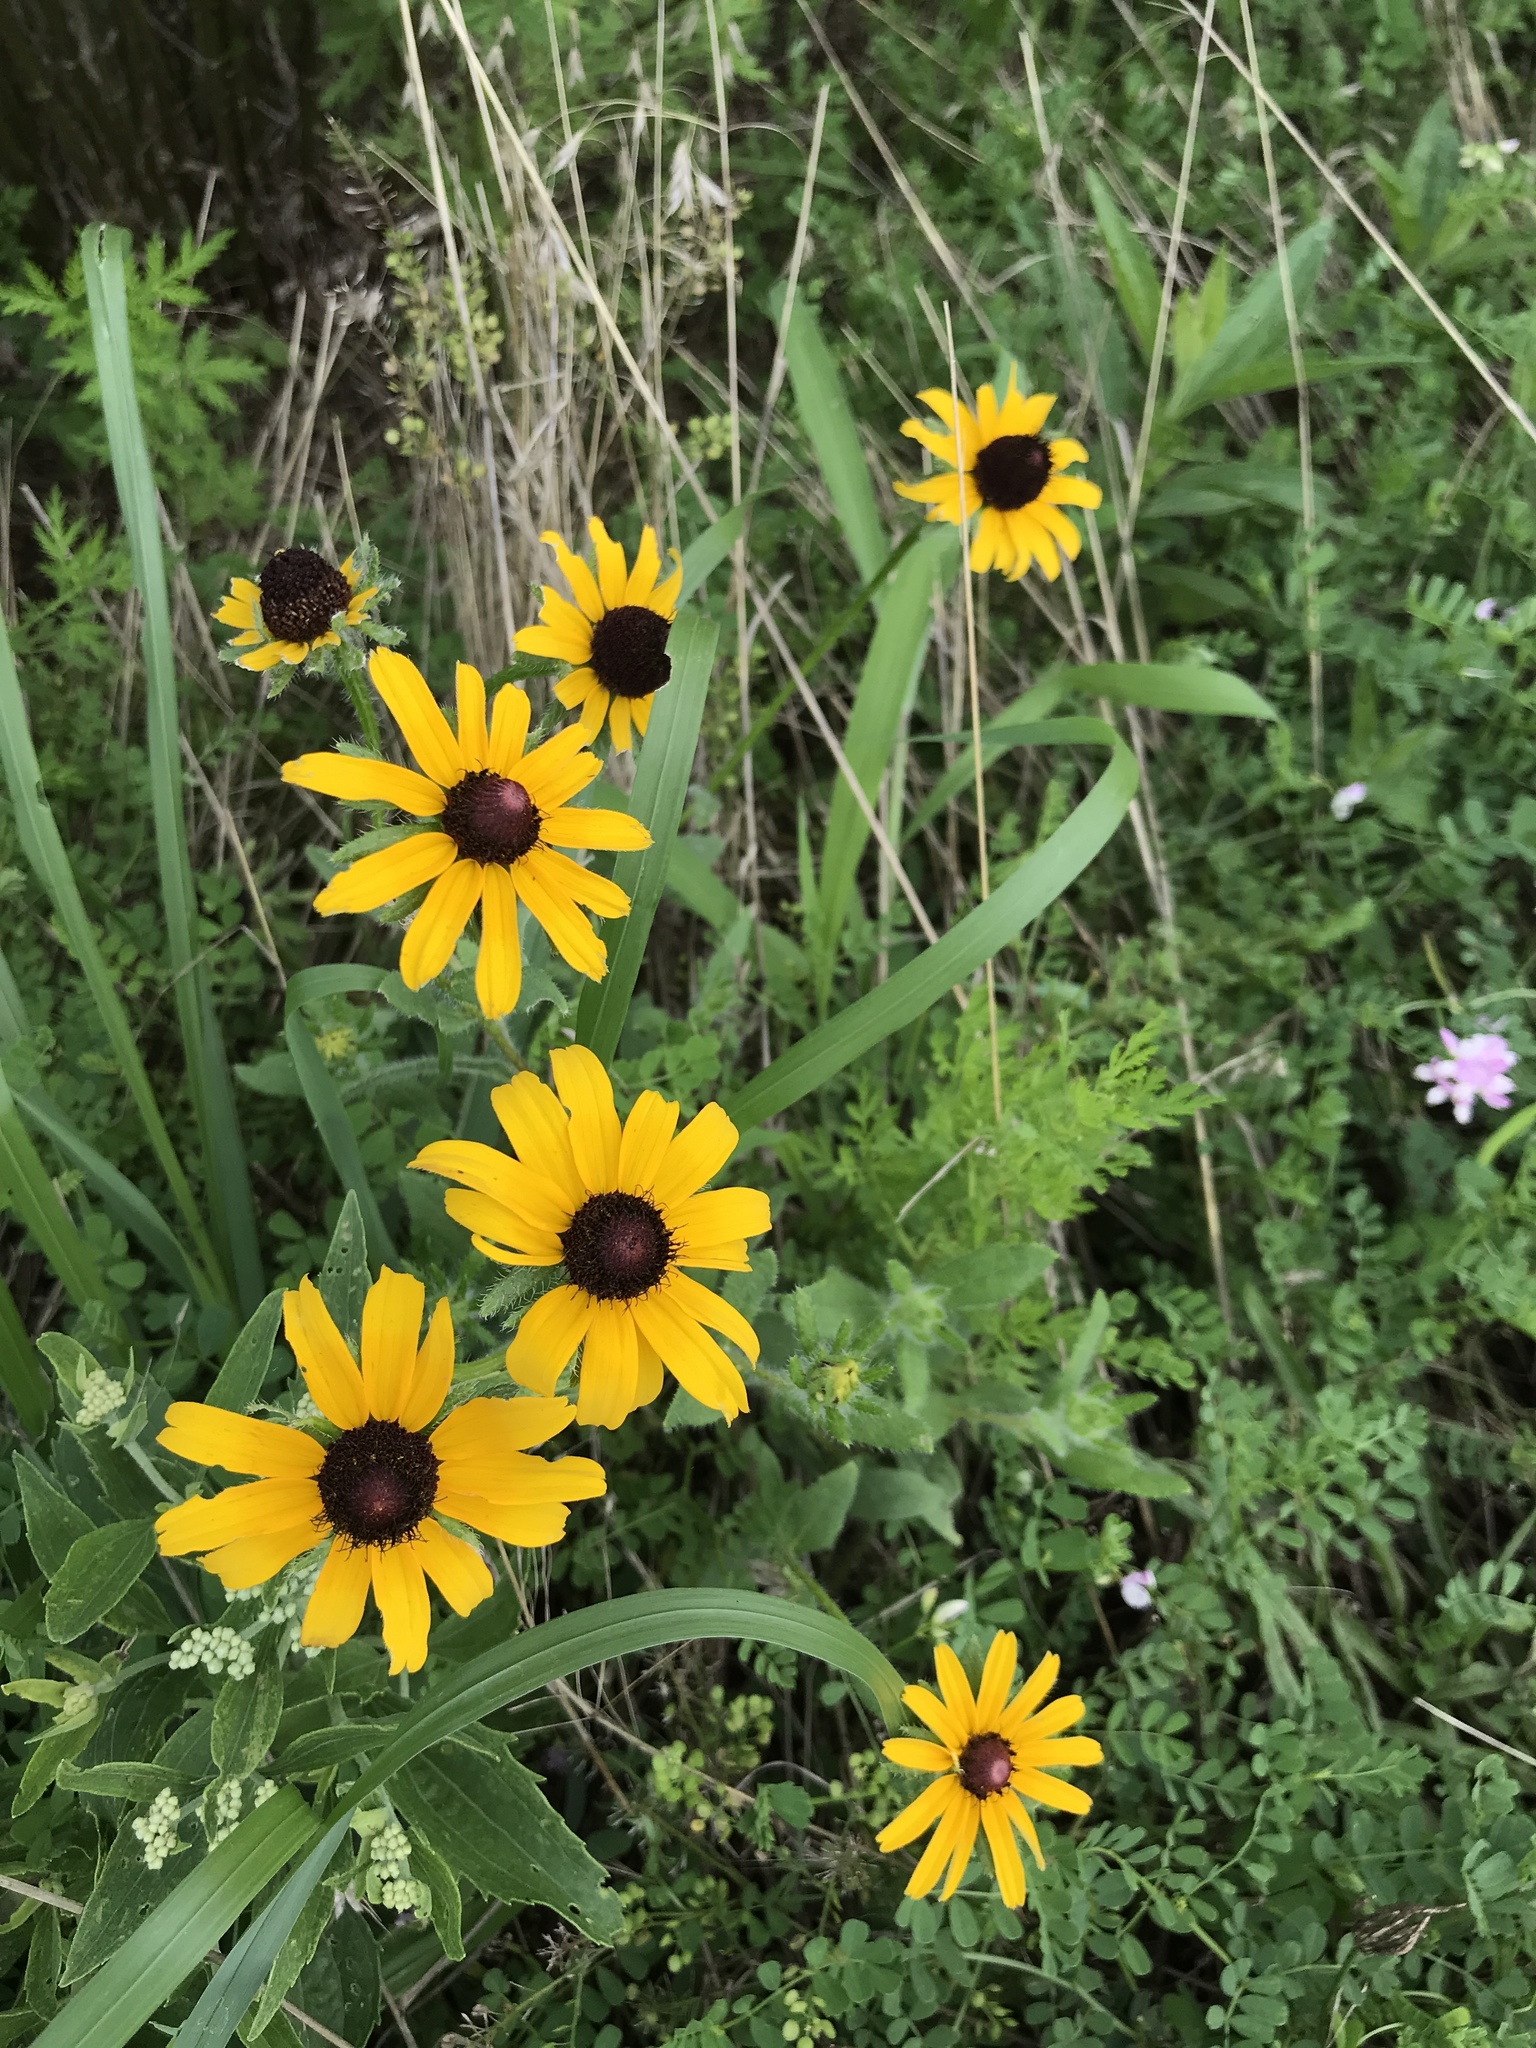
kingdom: Plantae
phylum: Tracheophyta
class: Magnoliopsida
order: Asterales
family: Asteraceae
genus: Rudbeckia
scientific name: Rudbeckia hirta
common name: Black-eyed-susan
